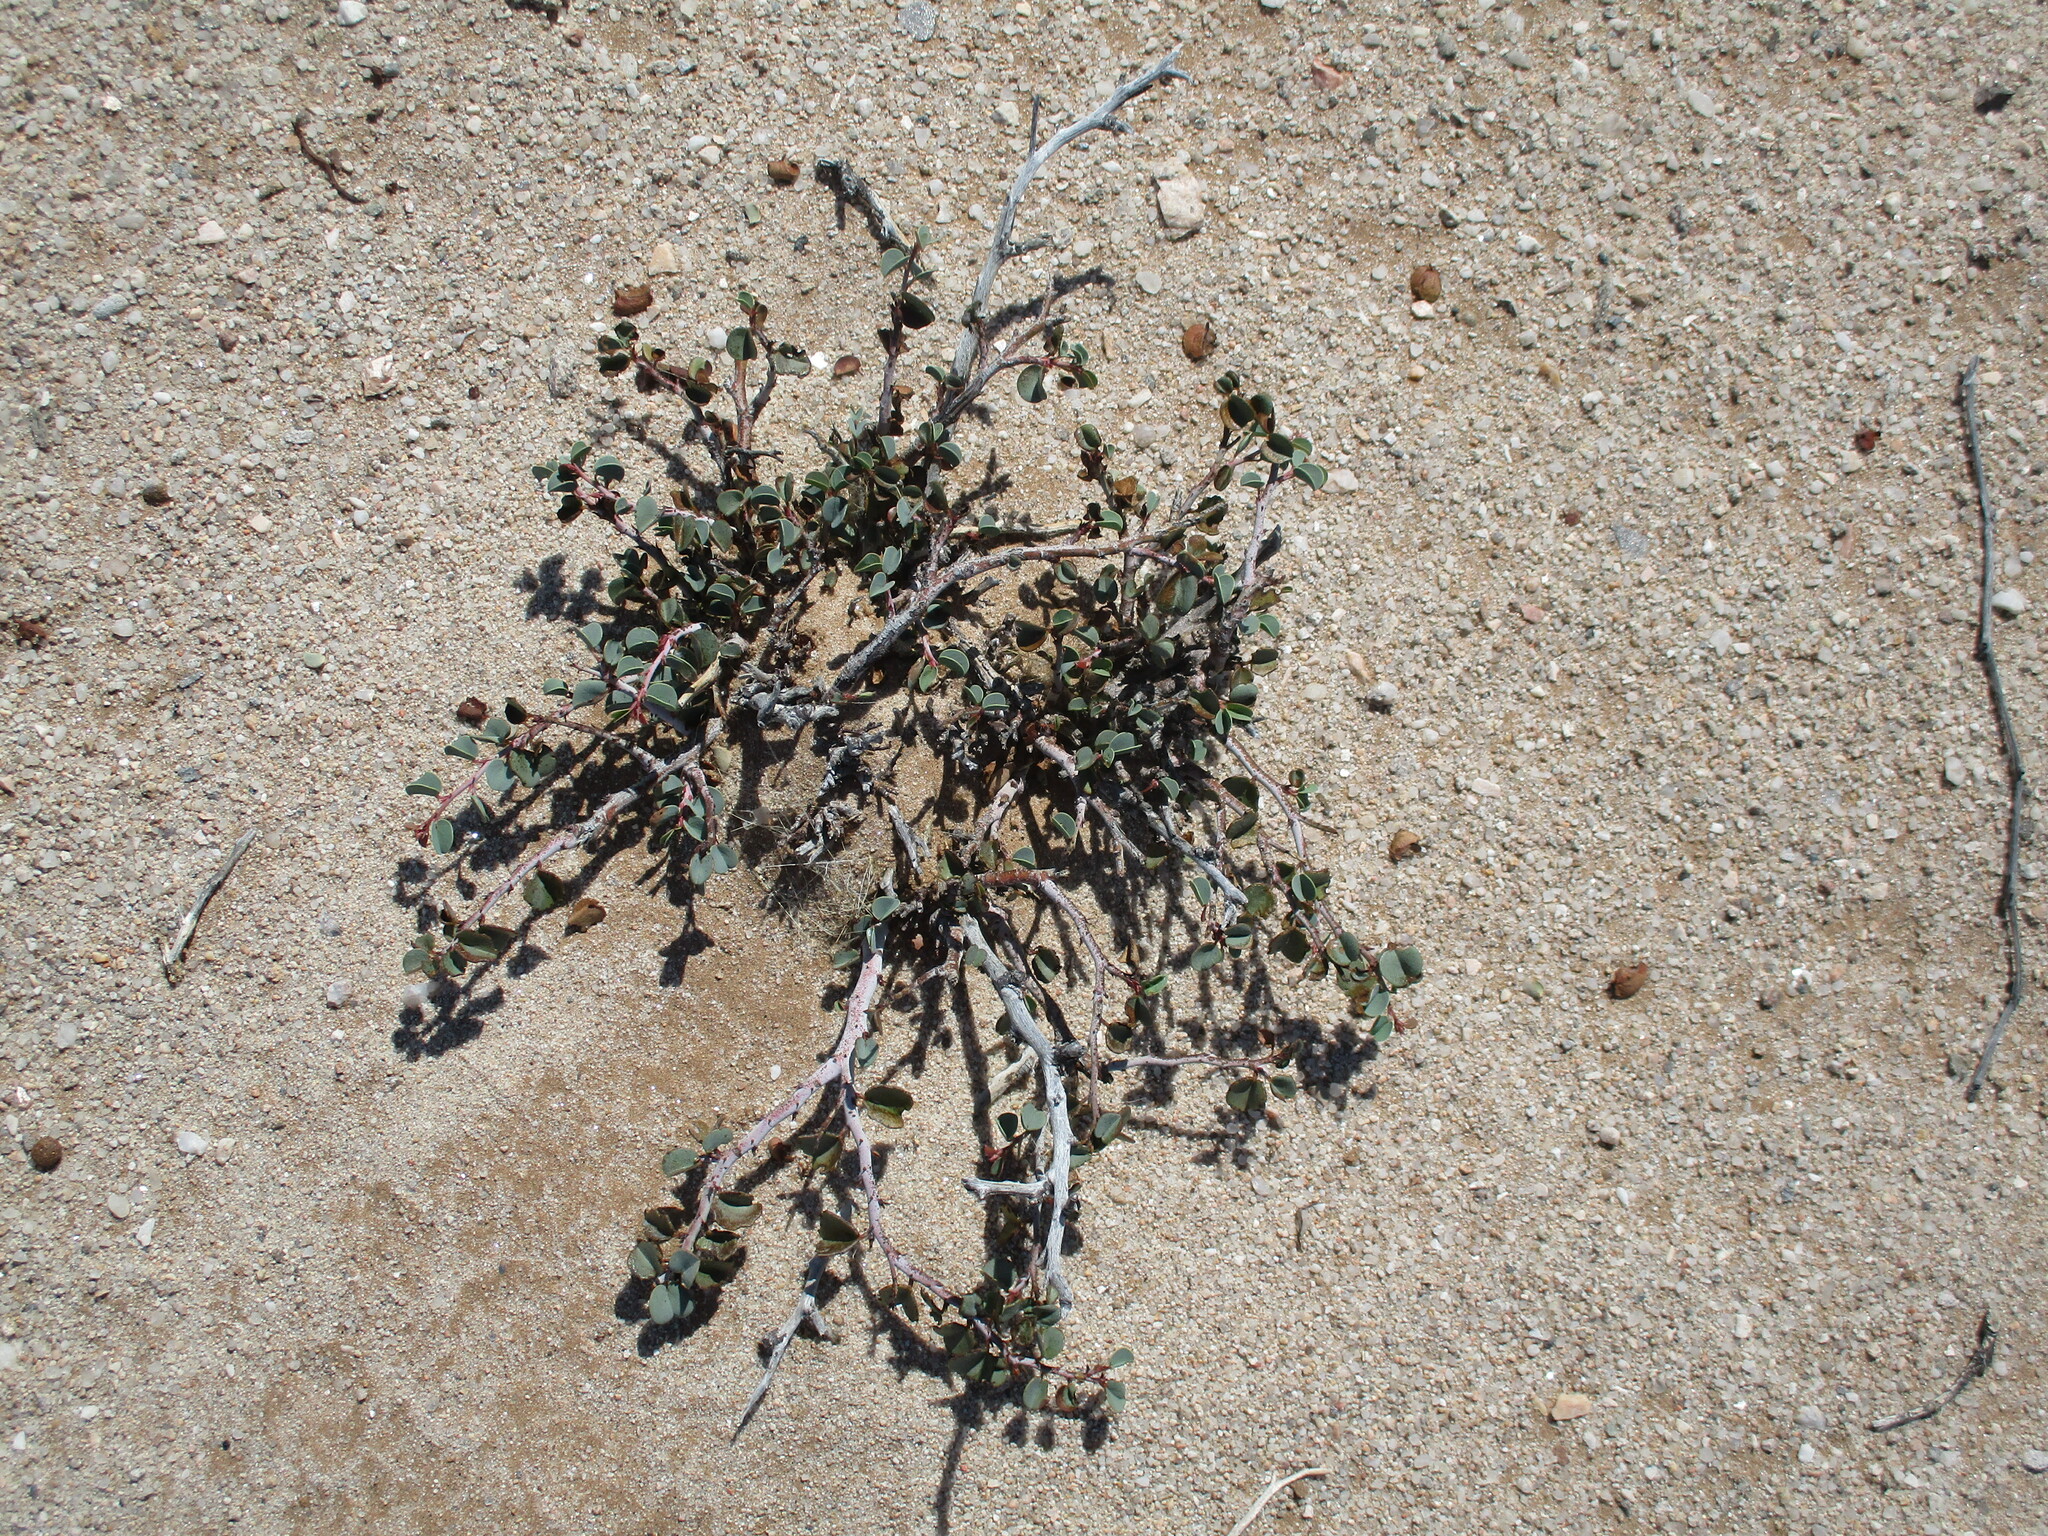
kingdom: Plantae
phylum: Tracheophyta
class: Magnoliopsida
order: Fabales
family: Fabaceae
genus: Adenolobus
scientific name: Adenolobus pechuelii
